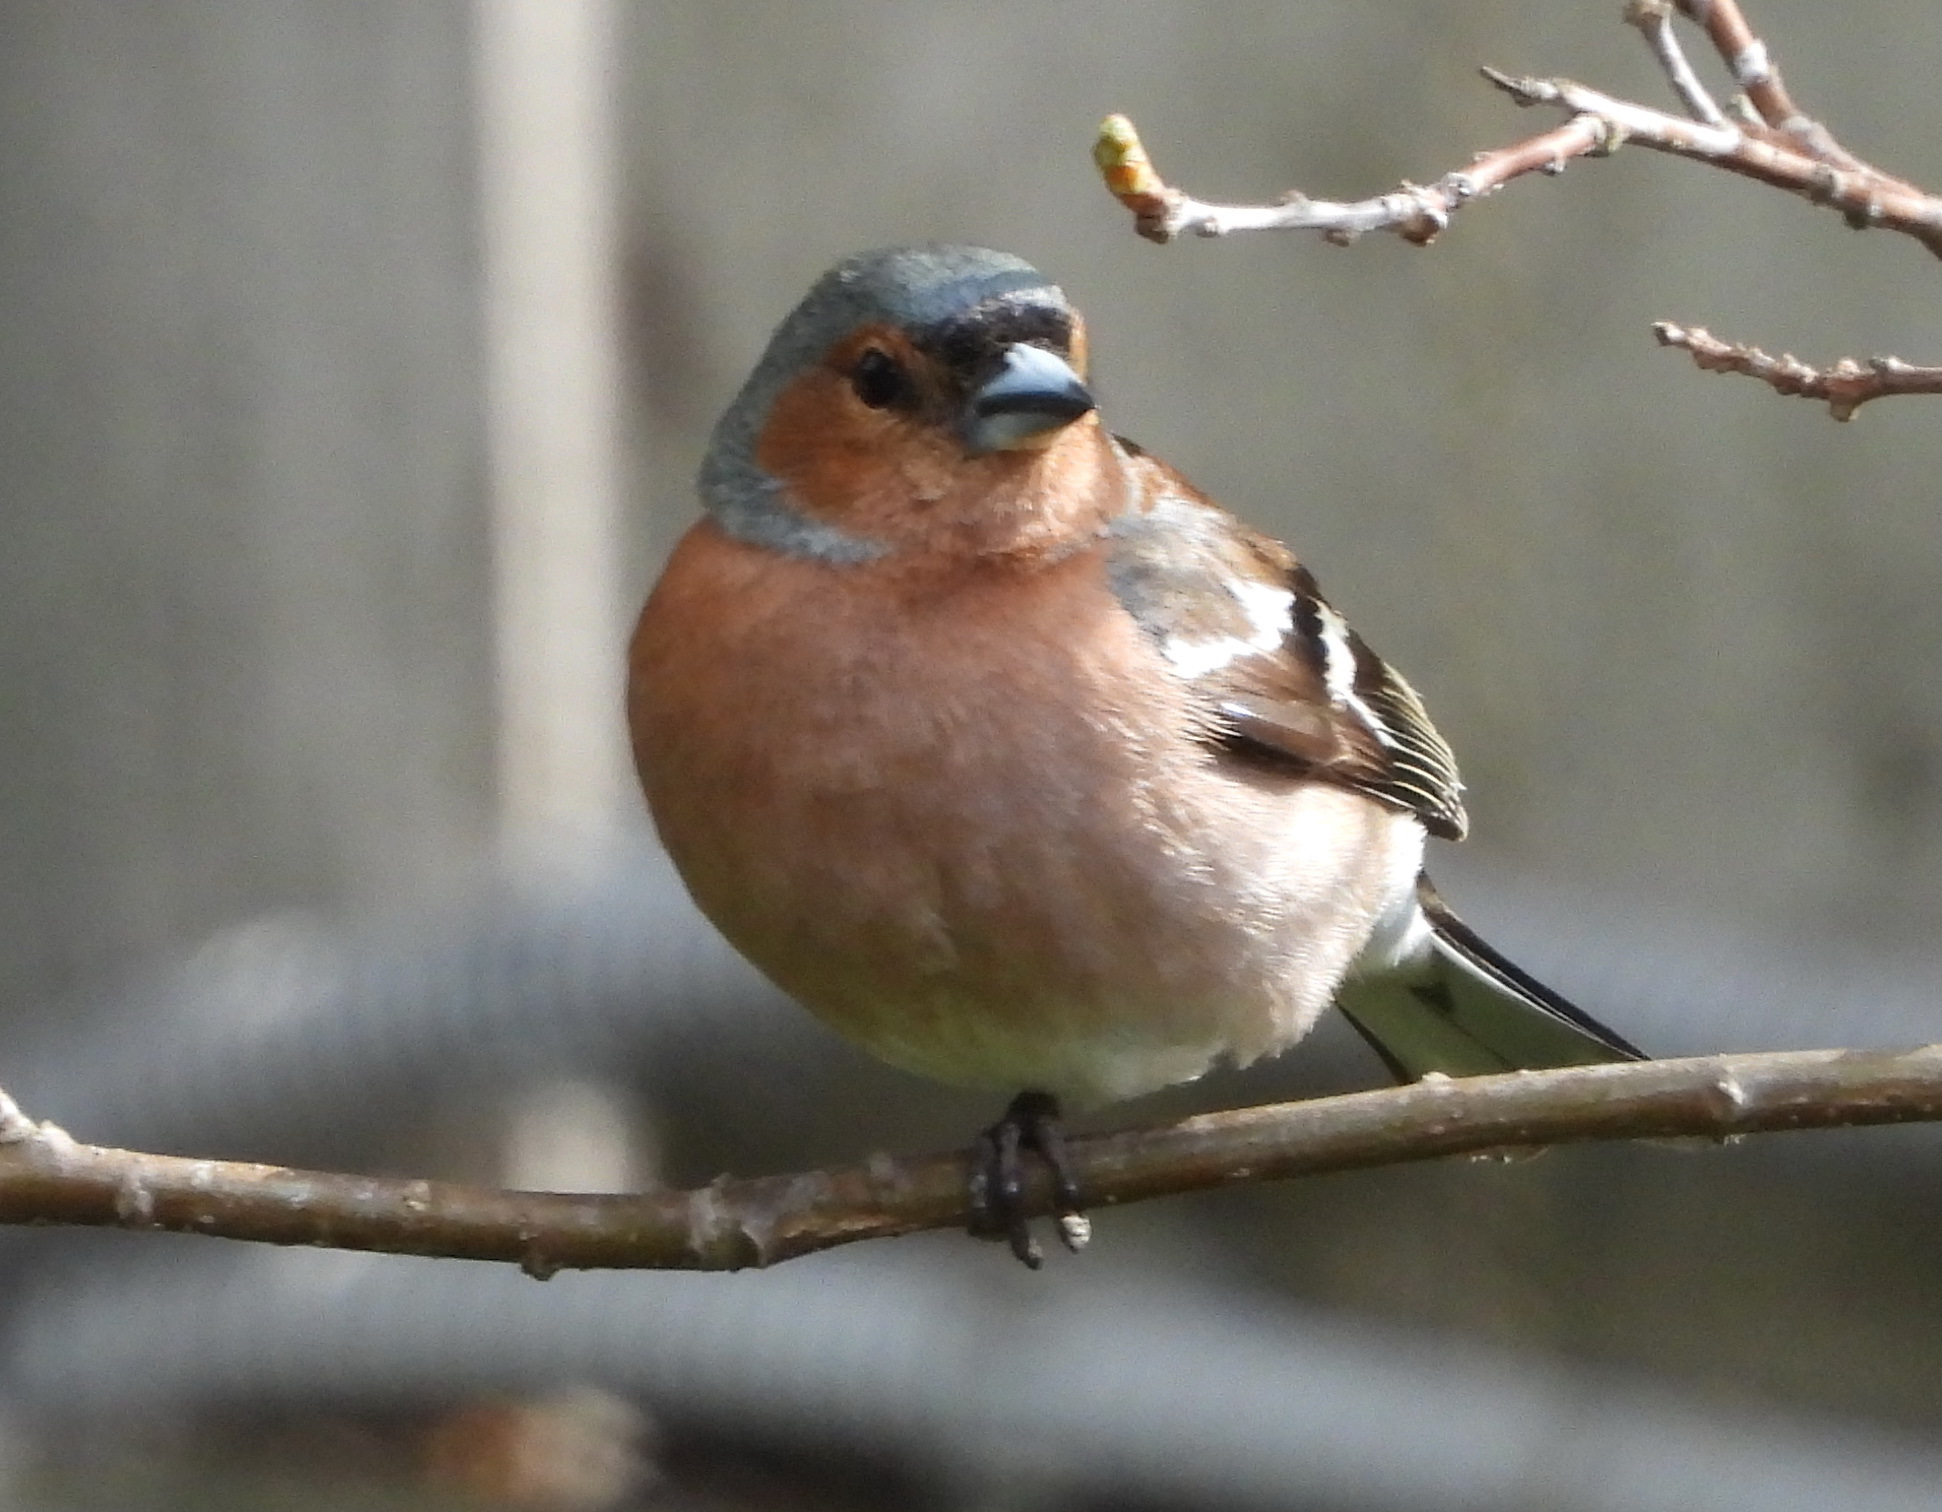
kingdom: Animalia
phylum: Chordata
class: Aves
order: Passeriformes
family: Fringillidae
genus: Fringilla
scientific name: Fringilla coelebs
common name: Common chaffinch
